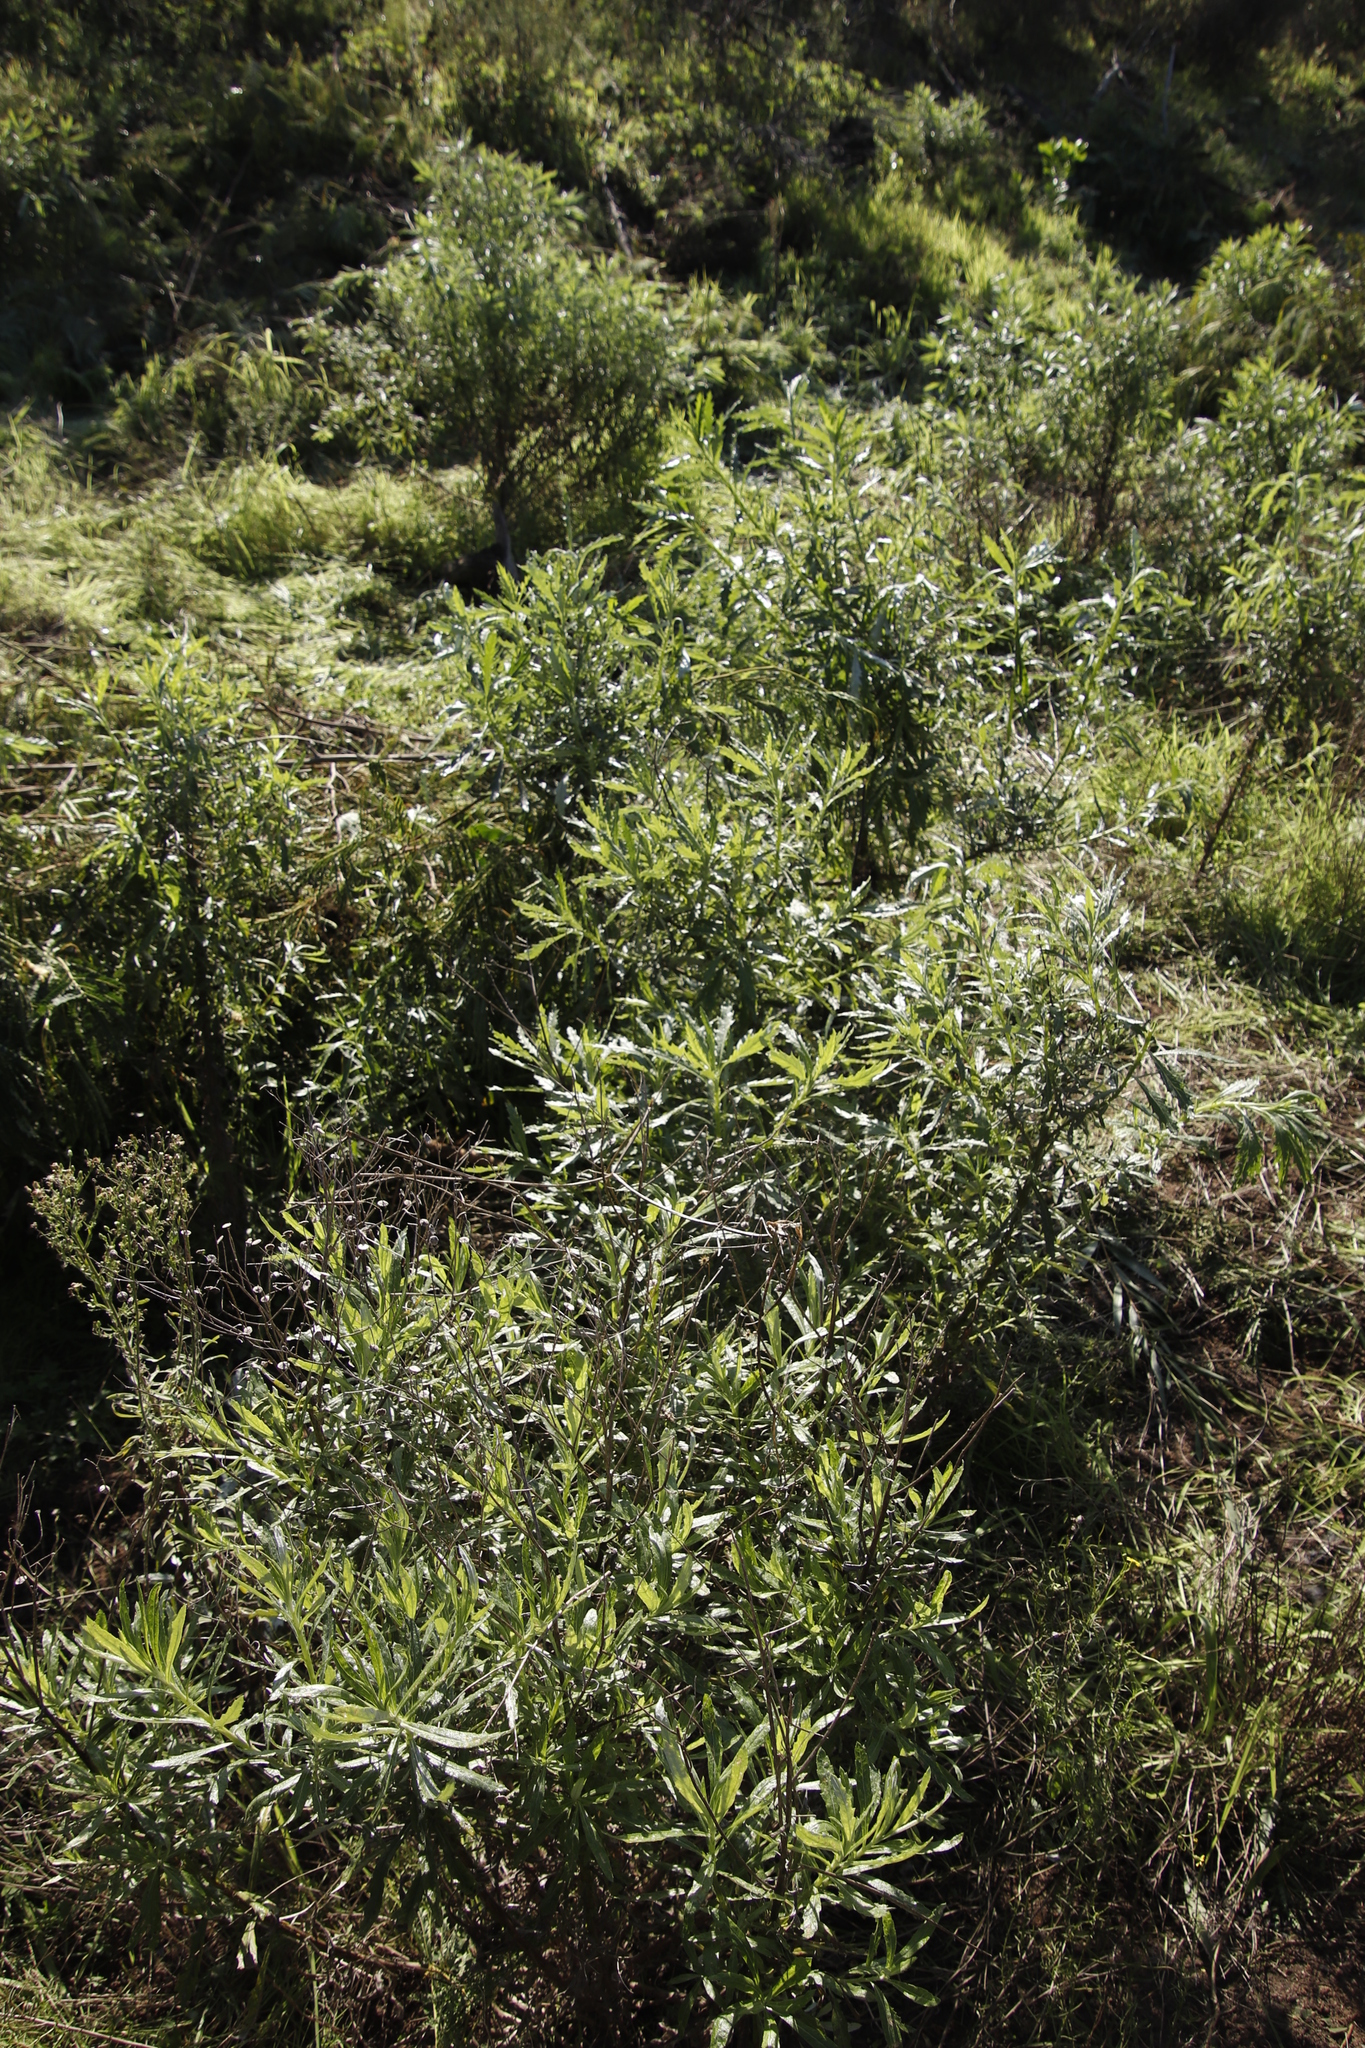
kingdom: Plantae
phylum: Tracheophyta
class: Magnoliopsida
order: Asterales
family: Asteraceae
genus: Senecio
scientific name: Senecio pterophorus
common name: Shoddy ragwort
